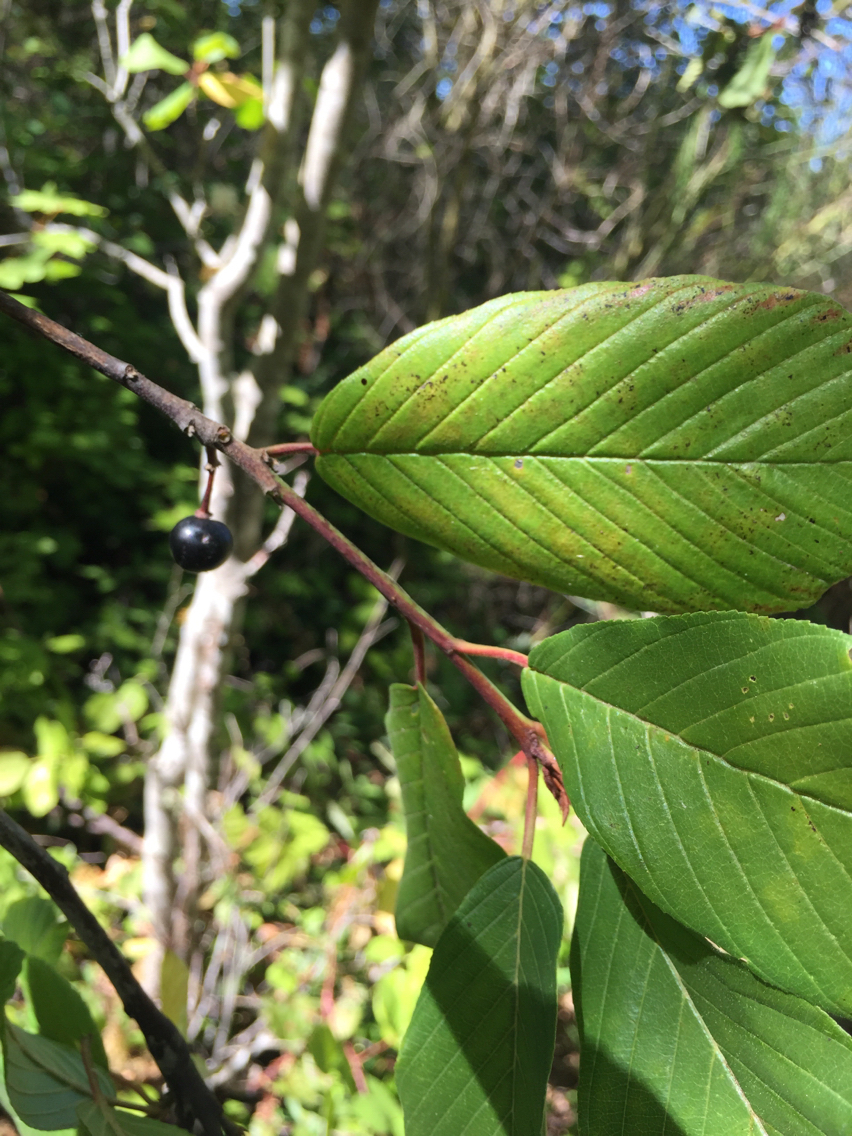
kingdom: Plantae
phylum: Tracheophyta
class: Magnoliopsida
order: Rosales
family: Rhamnaceae
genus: Frangula
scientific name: Frangula purshiana
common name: Cascara buckthorn
